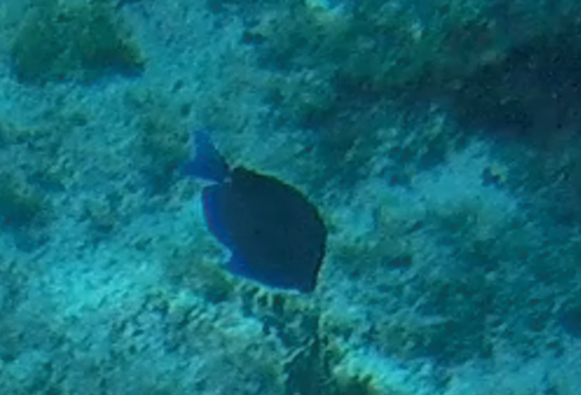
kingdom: Animalia
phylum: Chordata
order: Perciformes
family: Acanthuridae
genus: Acanthurus
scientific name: Acanthurus coeruleus
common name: Blue tang
